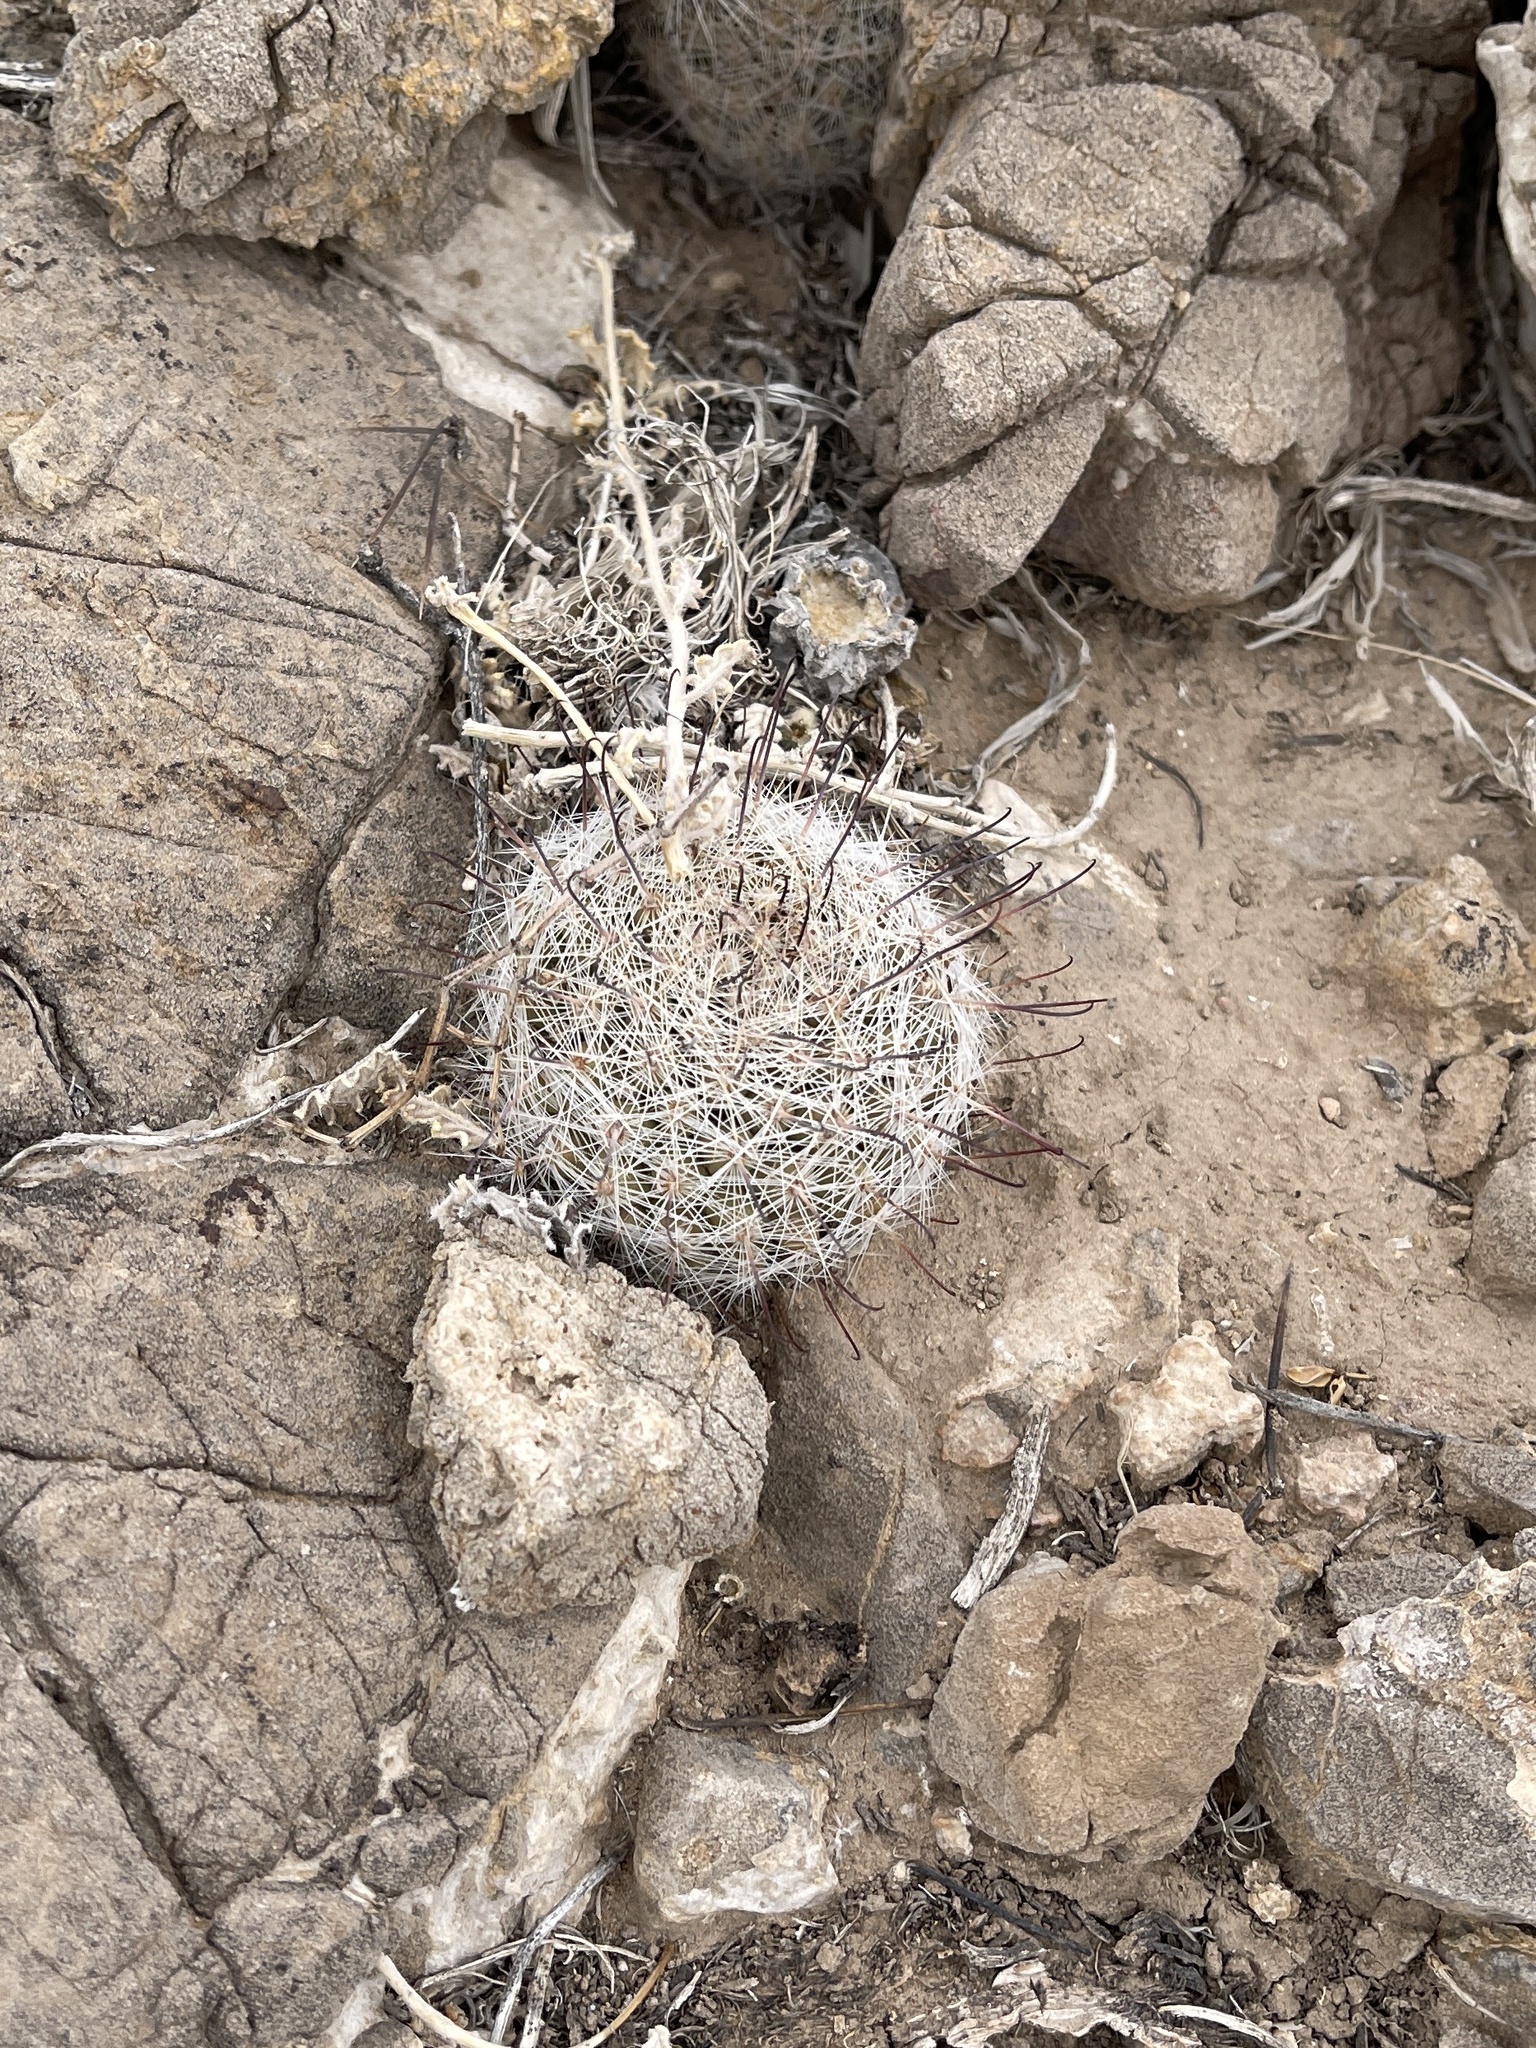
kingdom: Plantae
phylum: Tracheophyta
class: Magnoliopsida
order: Caryophyllales
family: Cactaceae
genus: Cochemiea
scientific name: Cochemiea grahamii
